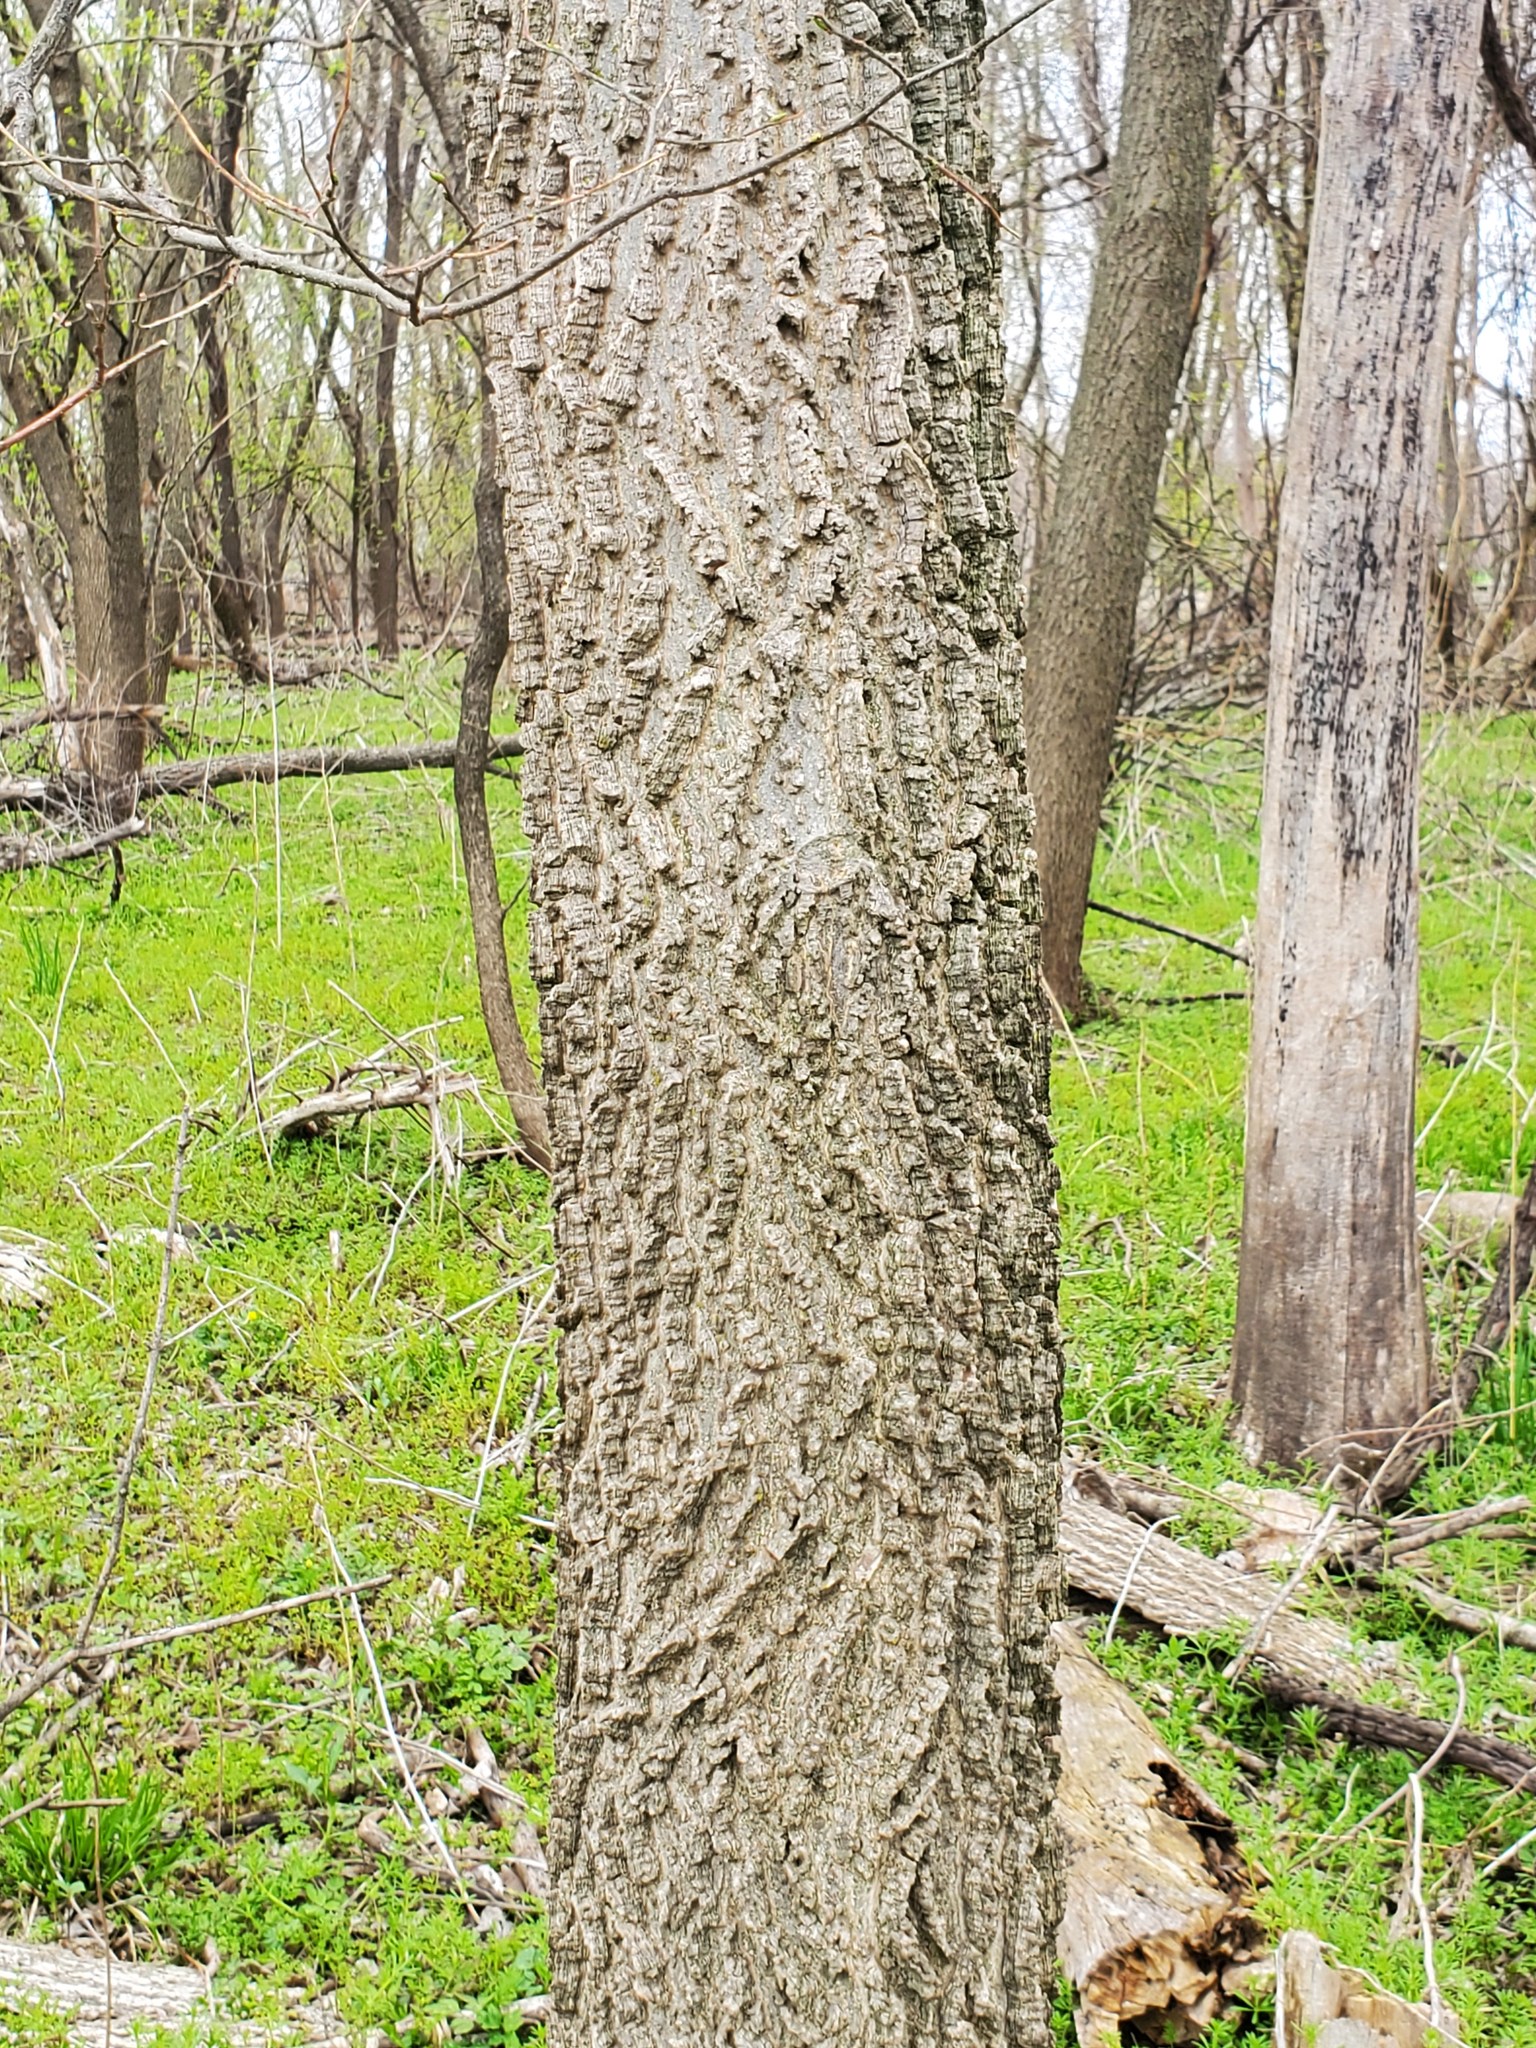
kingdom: Plantae
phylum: Tracheophyta
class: Magnoliopsida
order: Rosales
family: Cannabaceae
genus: Celtis
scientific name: Celtis occidentalis
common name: Common hackberry
